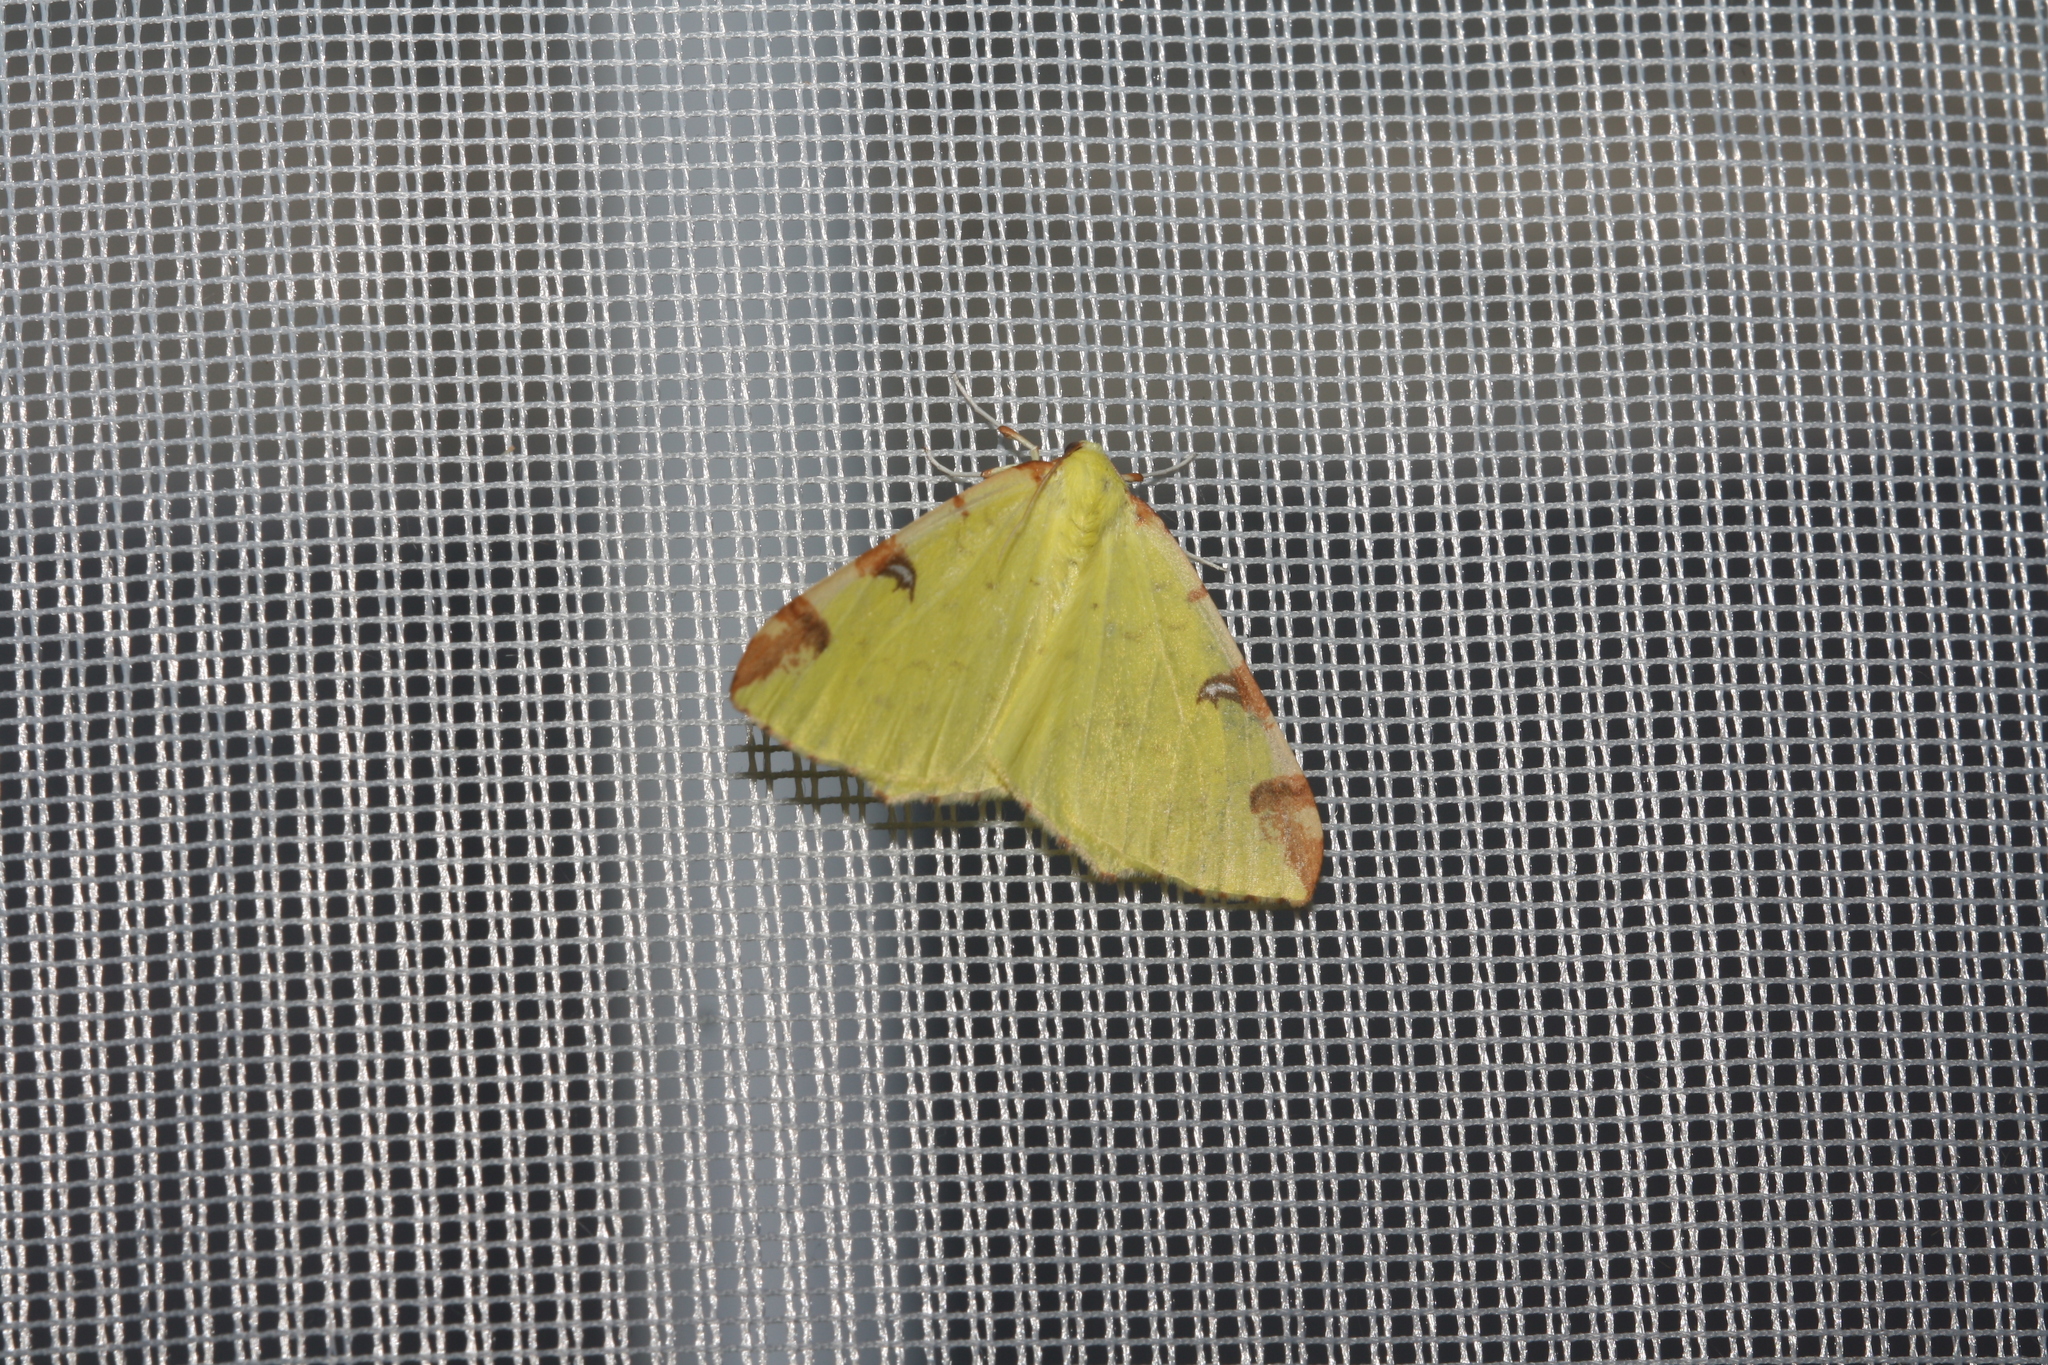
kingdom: Animalia
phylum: Arthropoda
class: Insecta
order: Lepidoptera
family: Geometridae
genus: Opisthograptis
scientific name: Opisthograptis luteolata
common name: Brimstone moth
